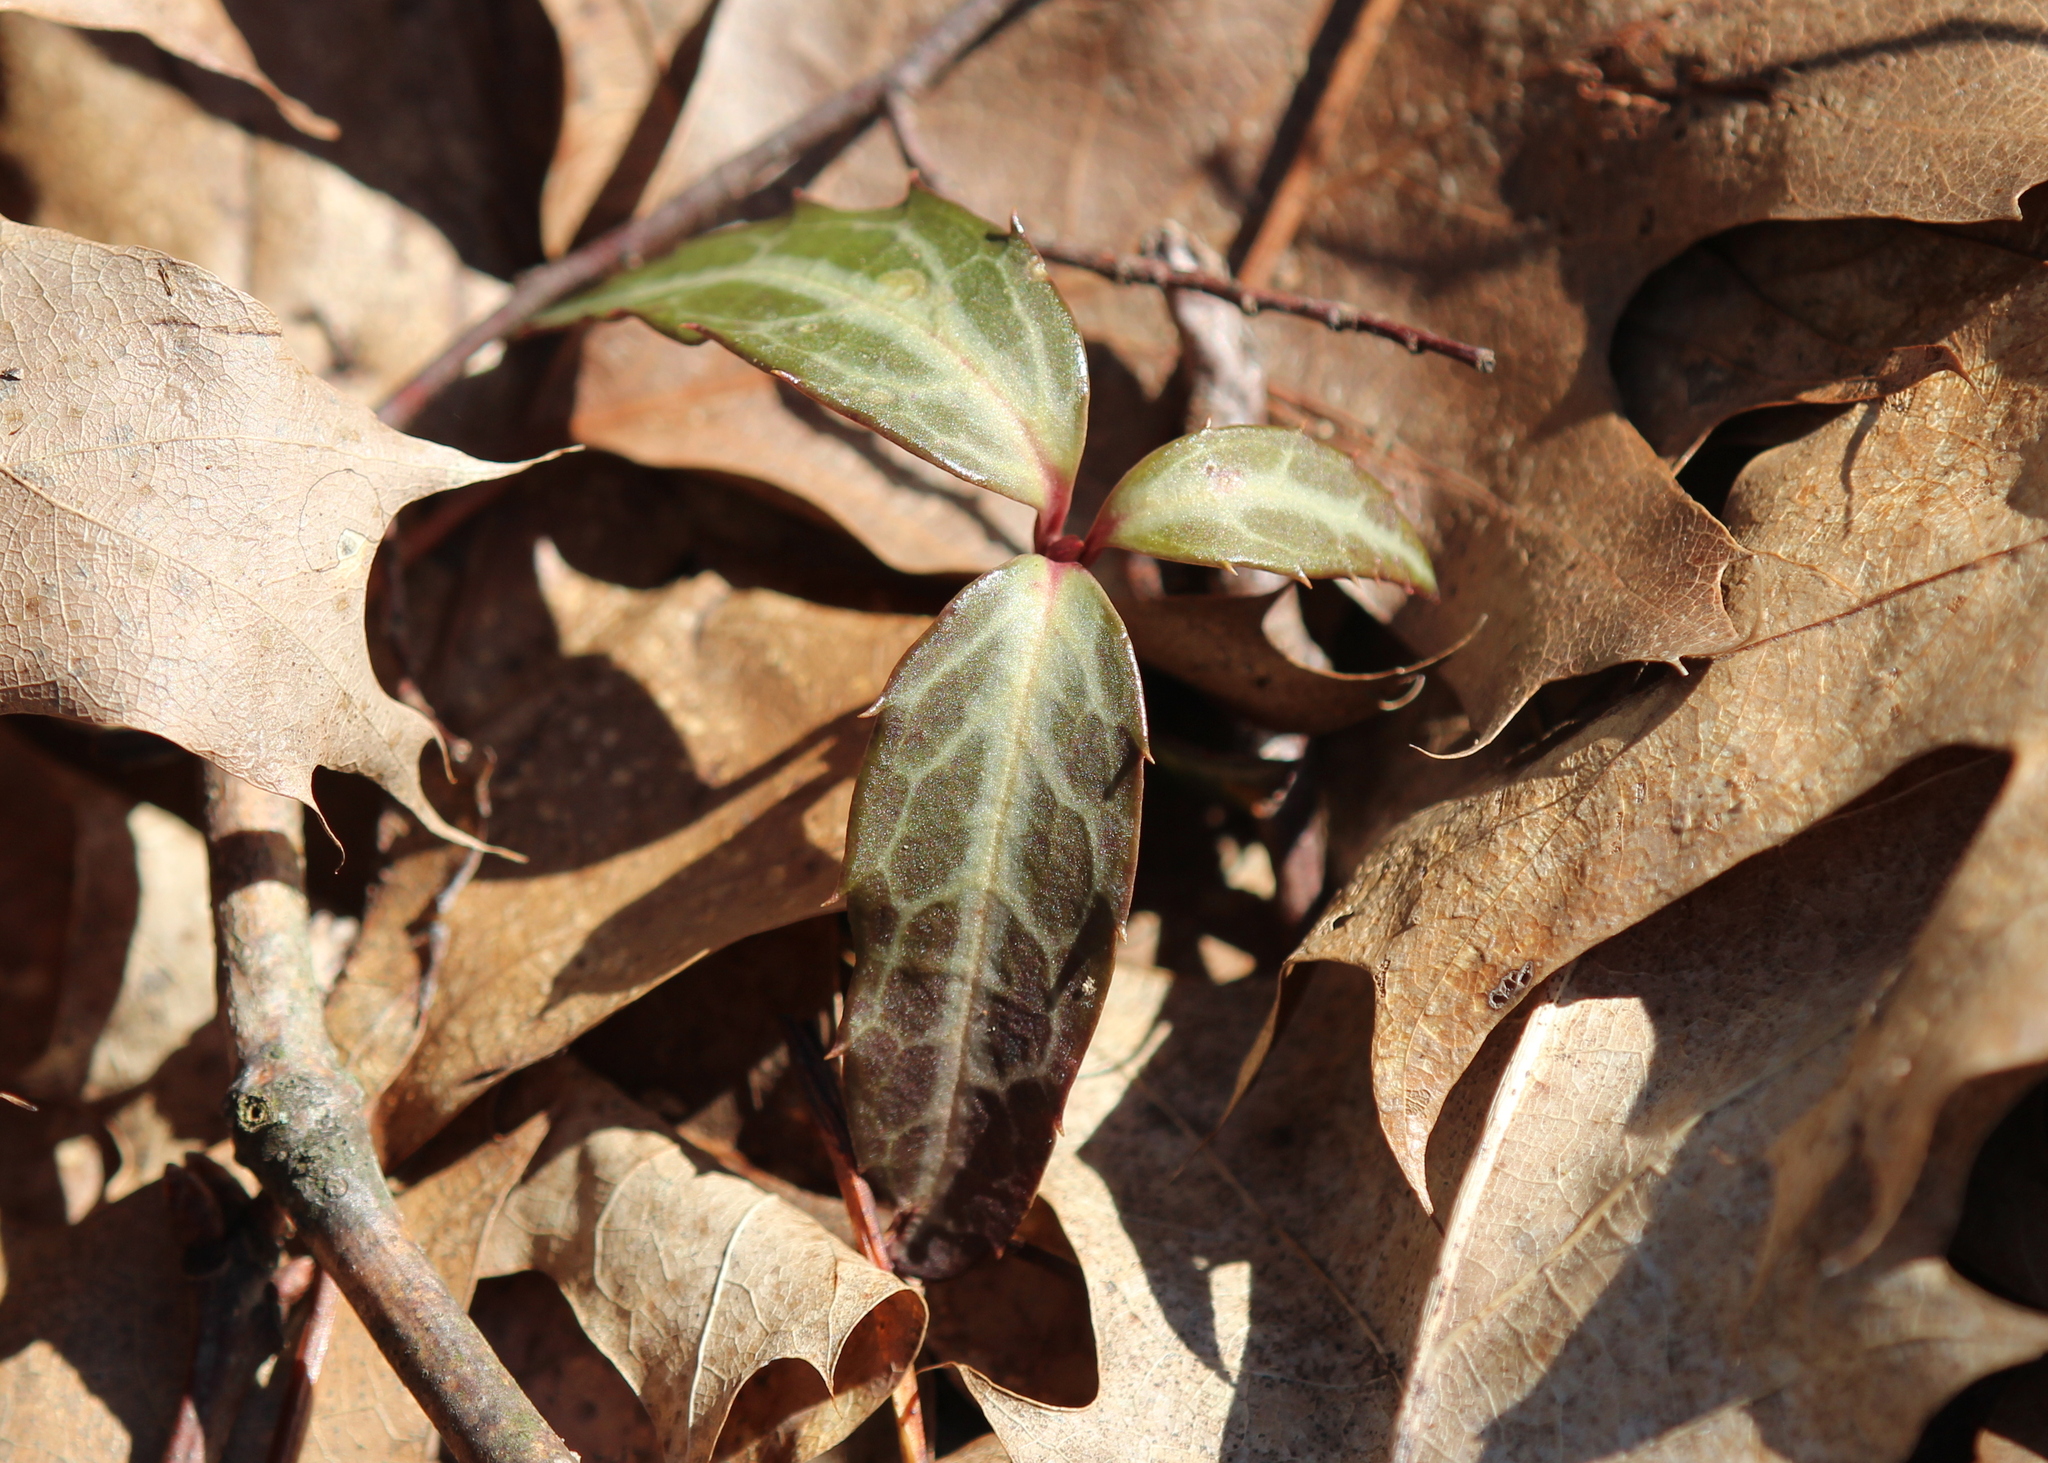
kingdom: Plantae
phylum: Tracheophyta
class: Magnoliopsida
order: Ericales
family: Ericaceae
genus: Chimaphila
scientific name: Chimaphila maculata
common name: Spotted pipsissewa
